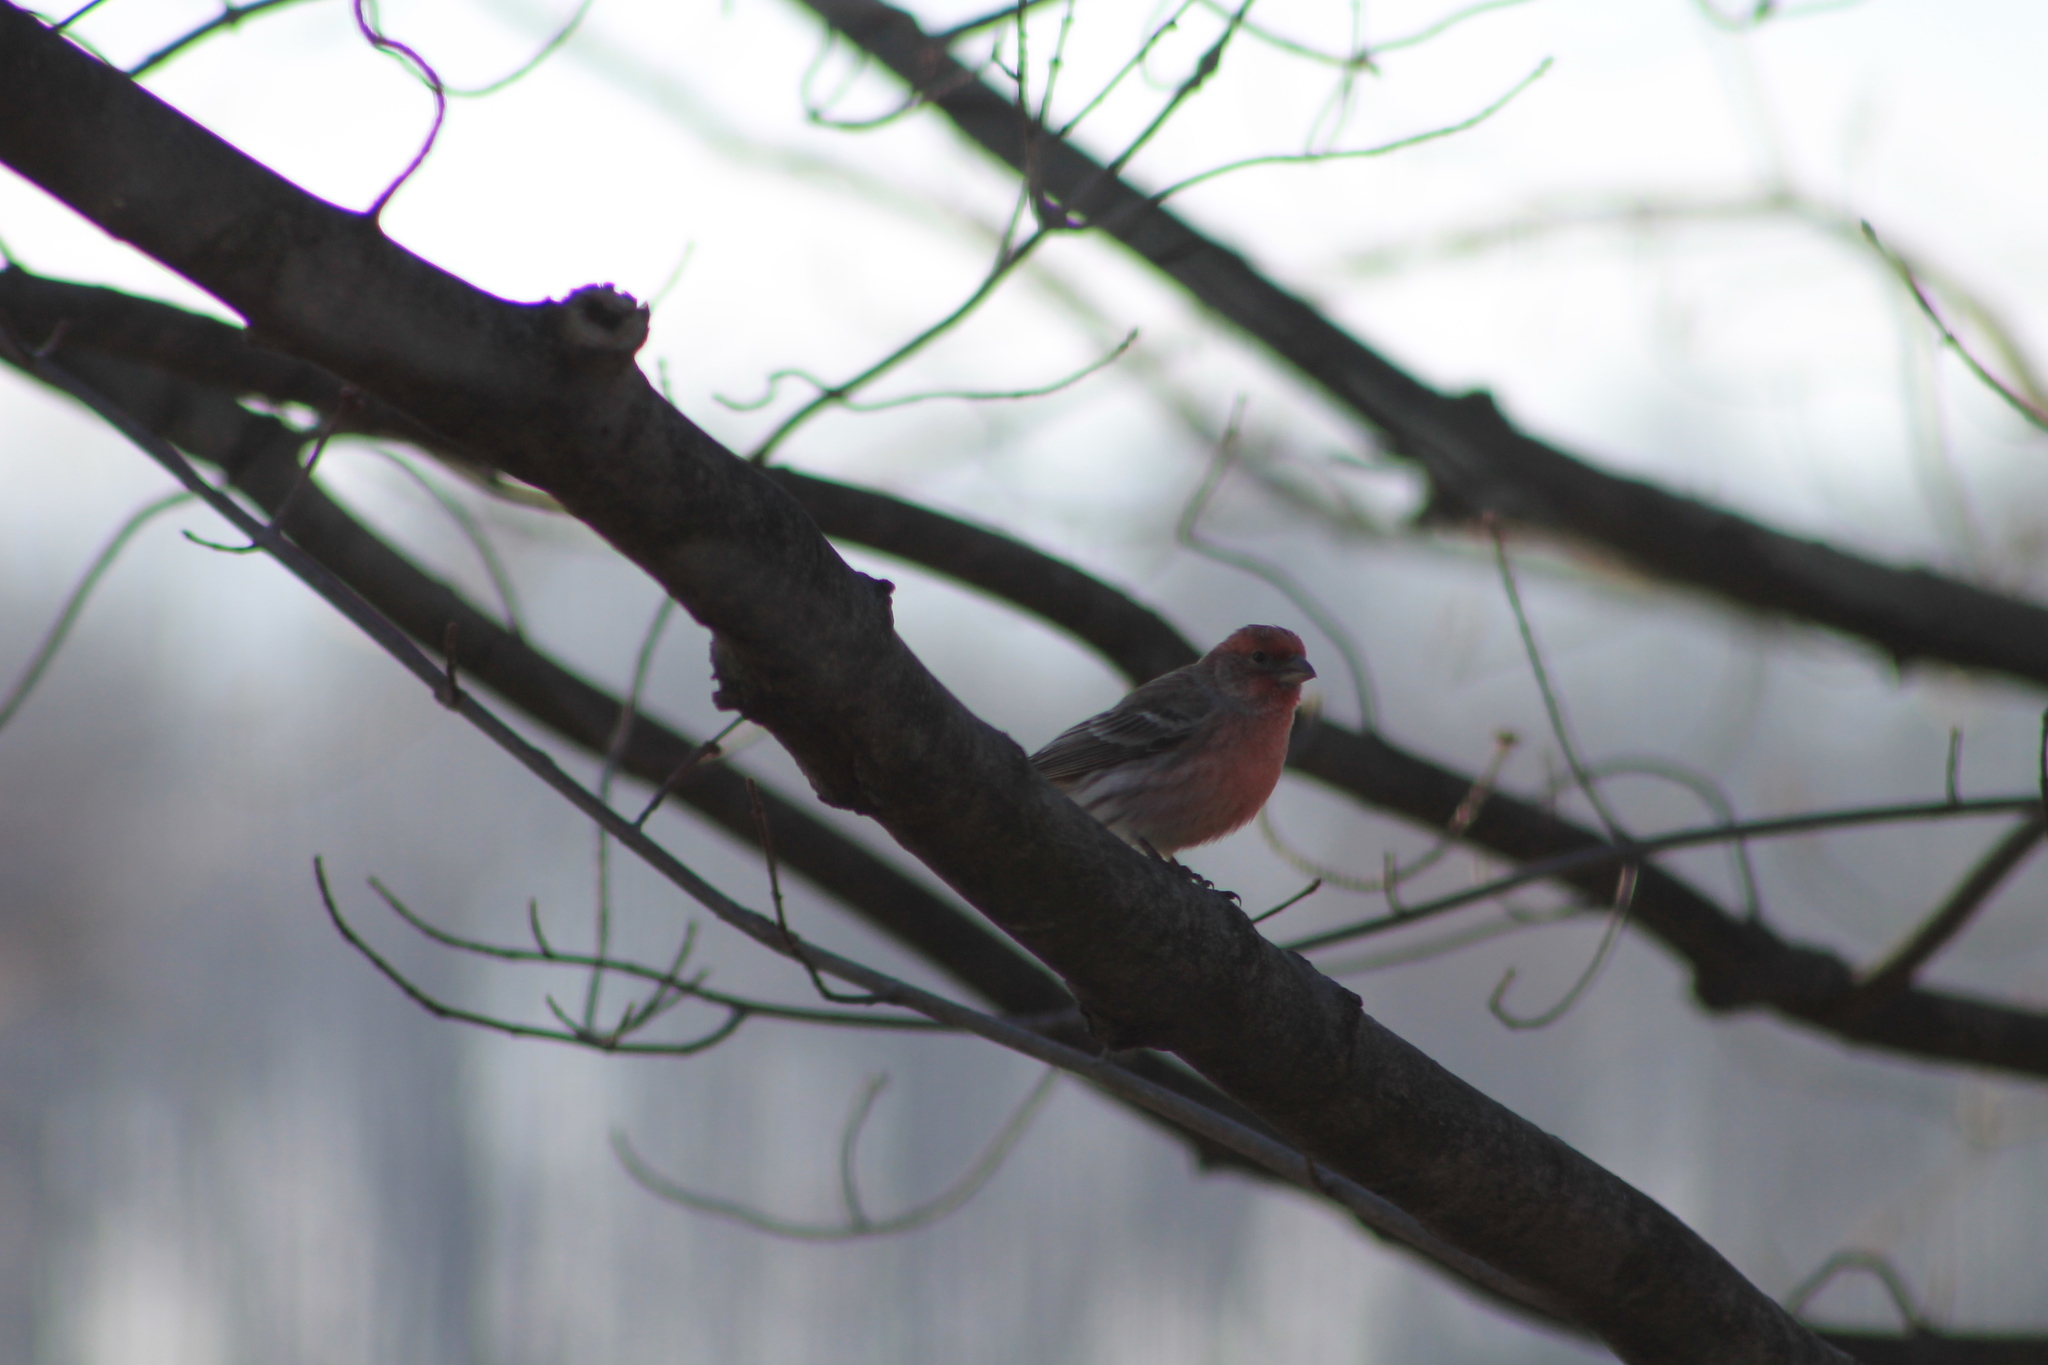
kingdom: Animalia
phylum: Chordata
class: Aves
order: Passeriformes
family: Fringillidae
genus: Haemorhous
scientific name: Haemorhous mexicanus
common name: House finch
